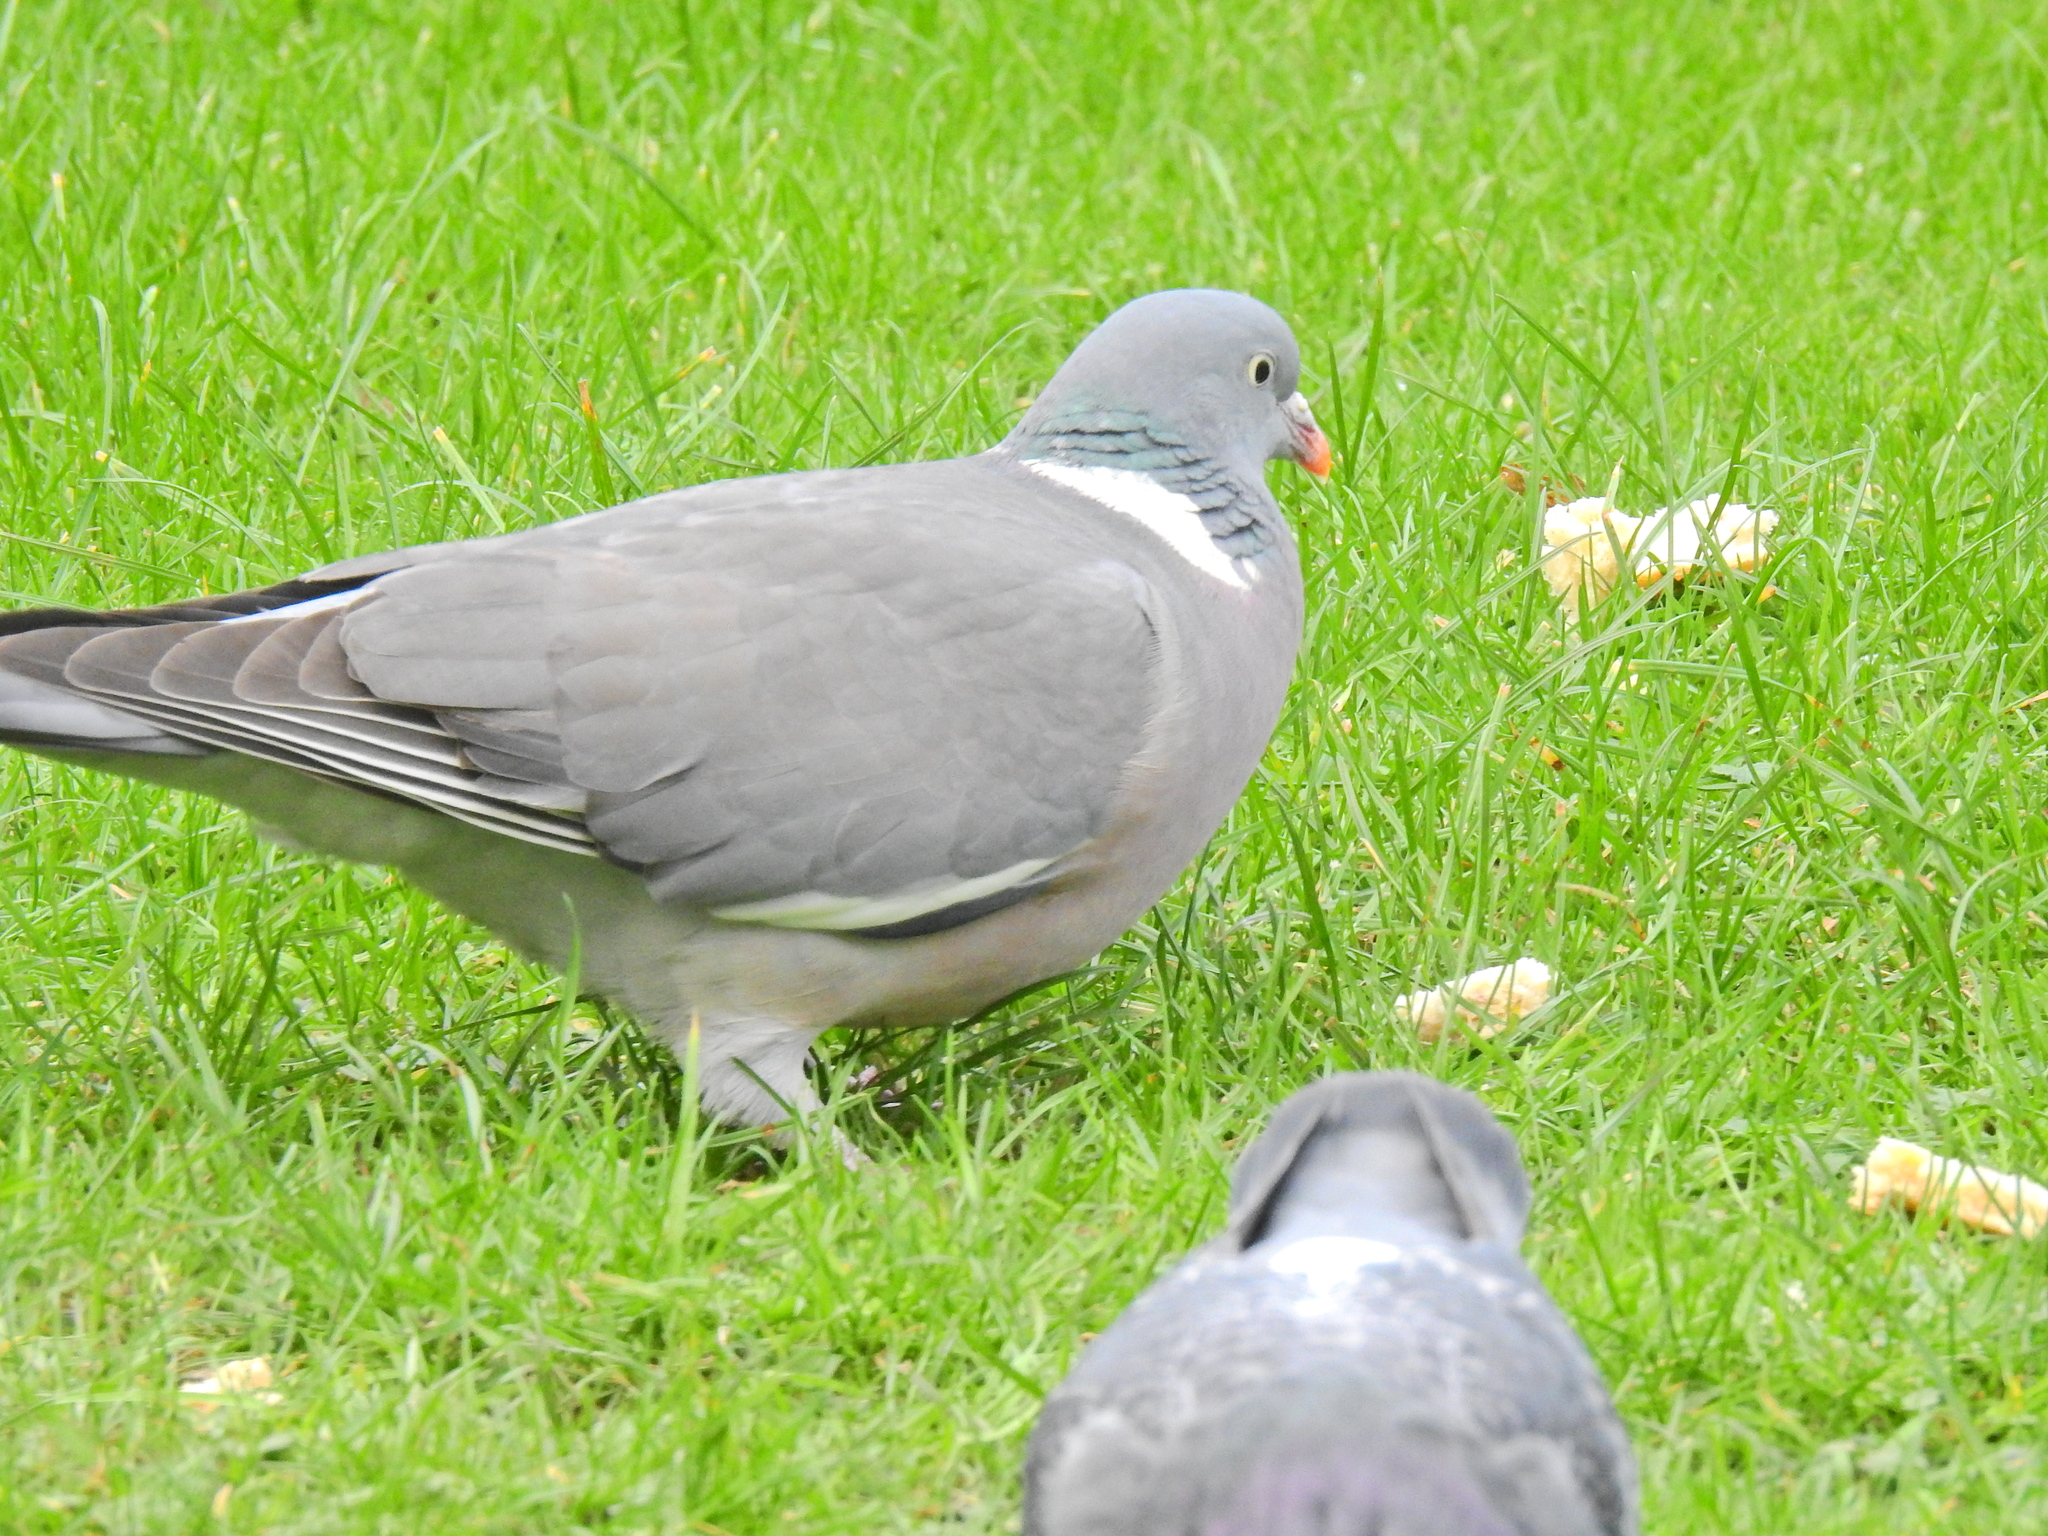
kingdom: Animalia
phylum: Chordata
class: Aves
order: Columbiformes
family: Columbidae
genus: Columba
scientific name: Columba palumbus
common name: Common wood pigeon
